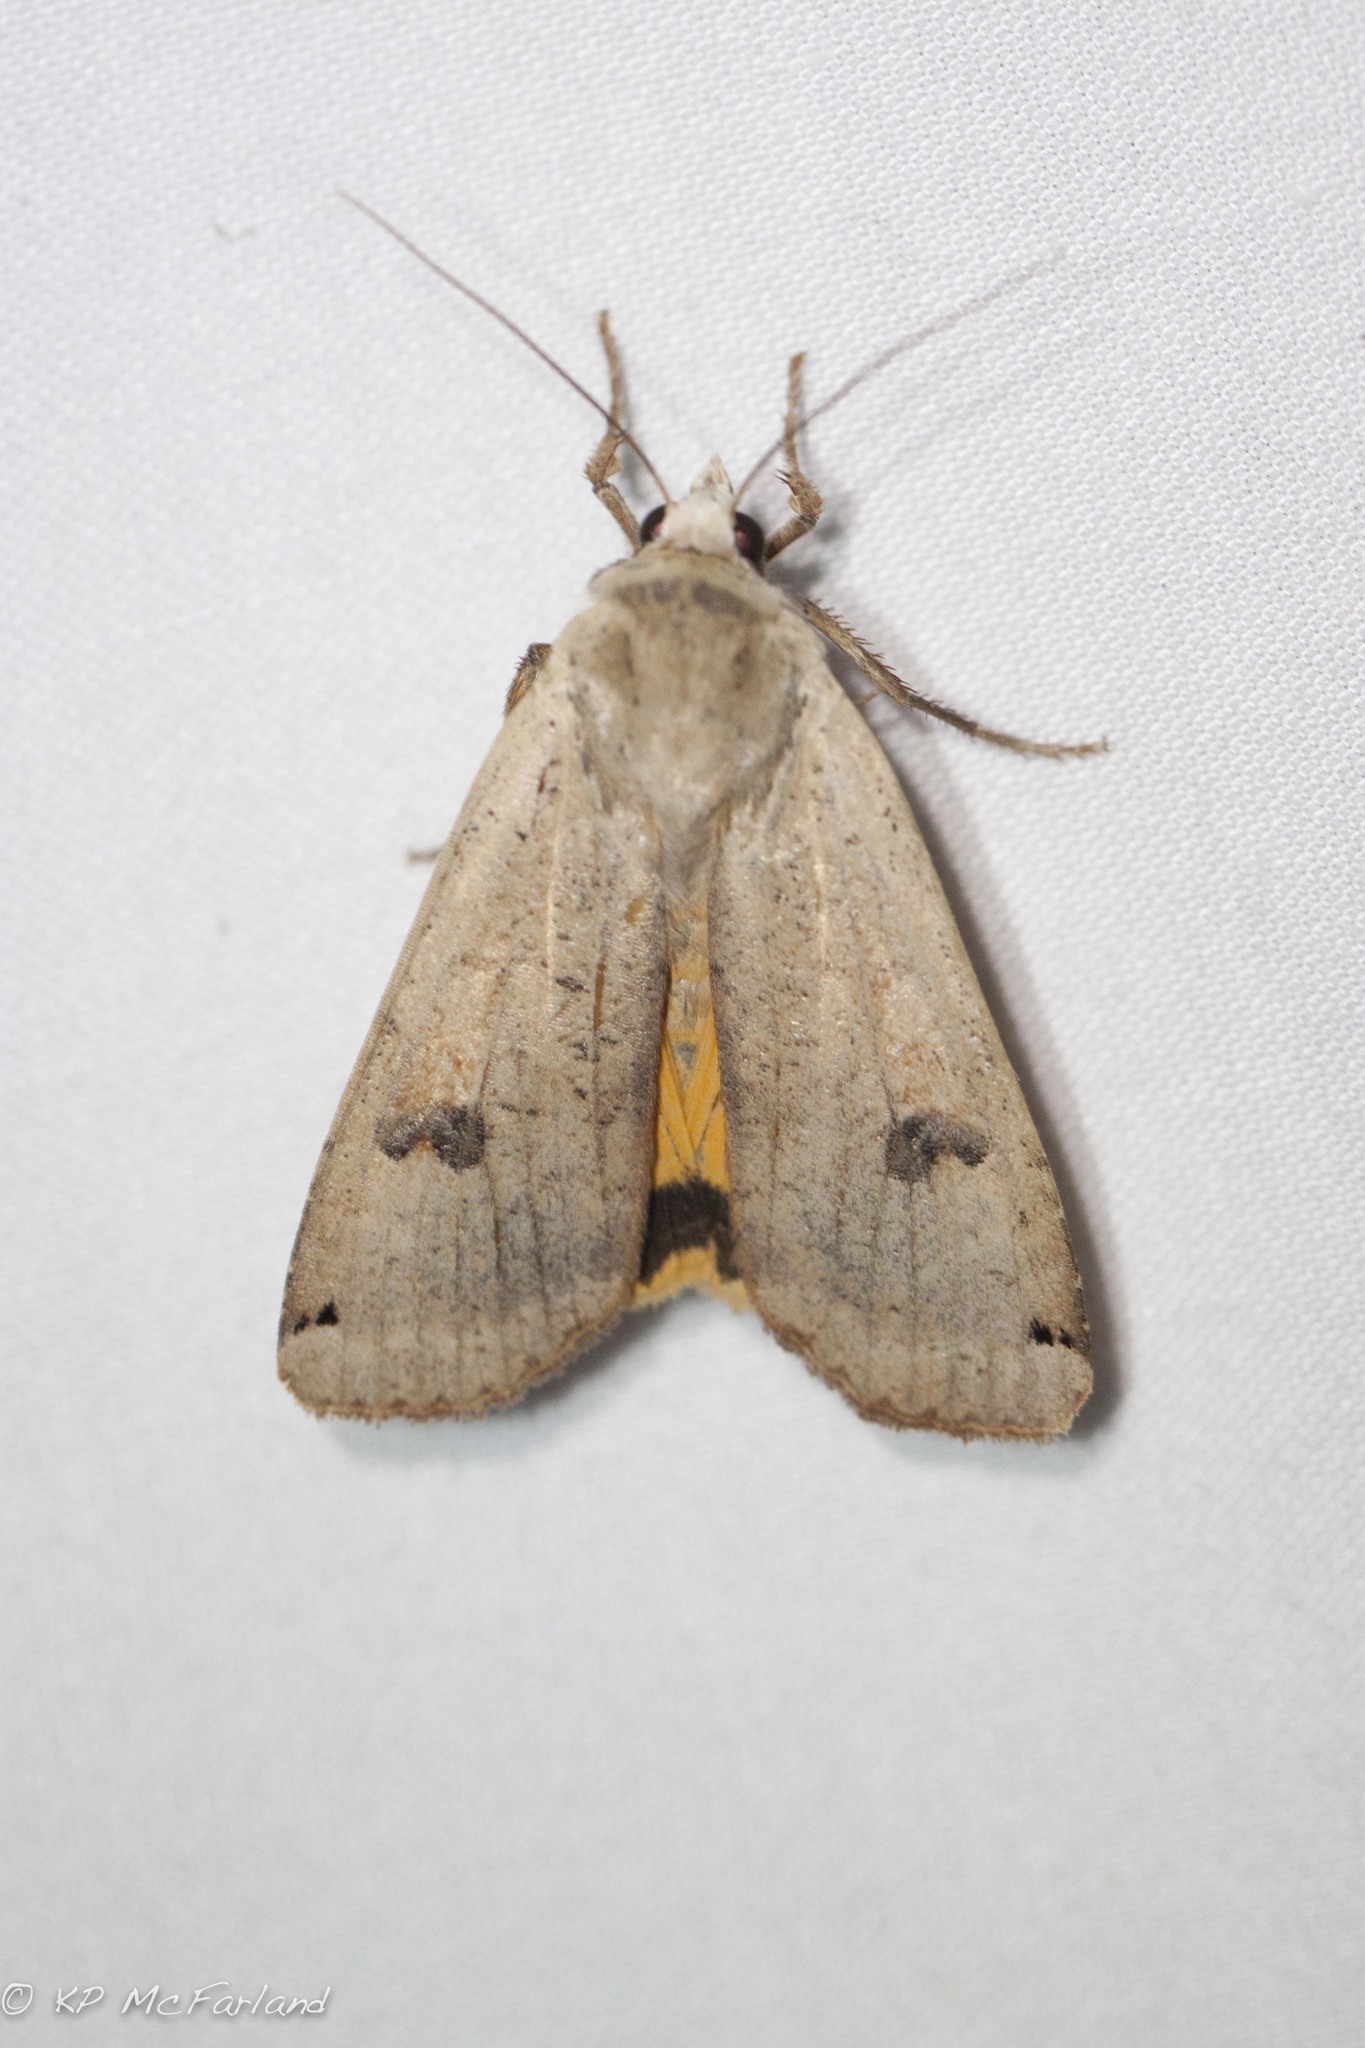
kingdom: Animalia
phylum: Arthropoda
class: Insecta
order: Lepidoptera
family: Noctuidae
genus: Noctua
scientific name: Noctua pronuba
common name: Large yellow underwing
